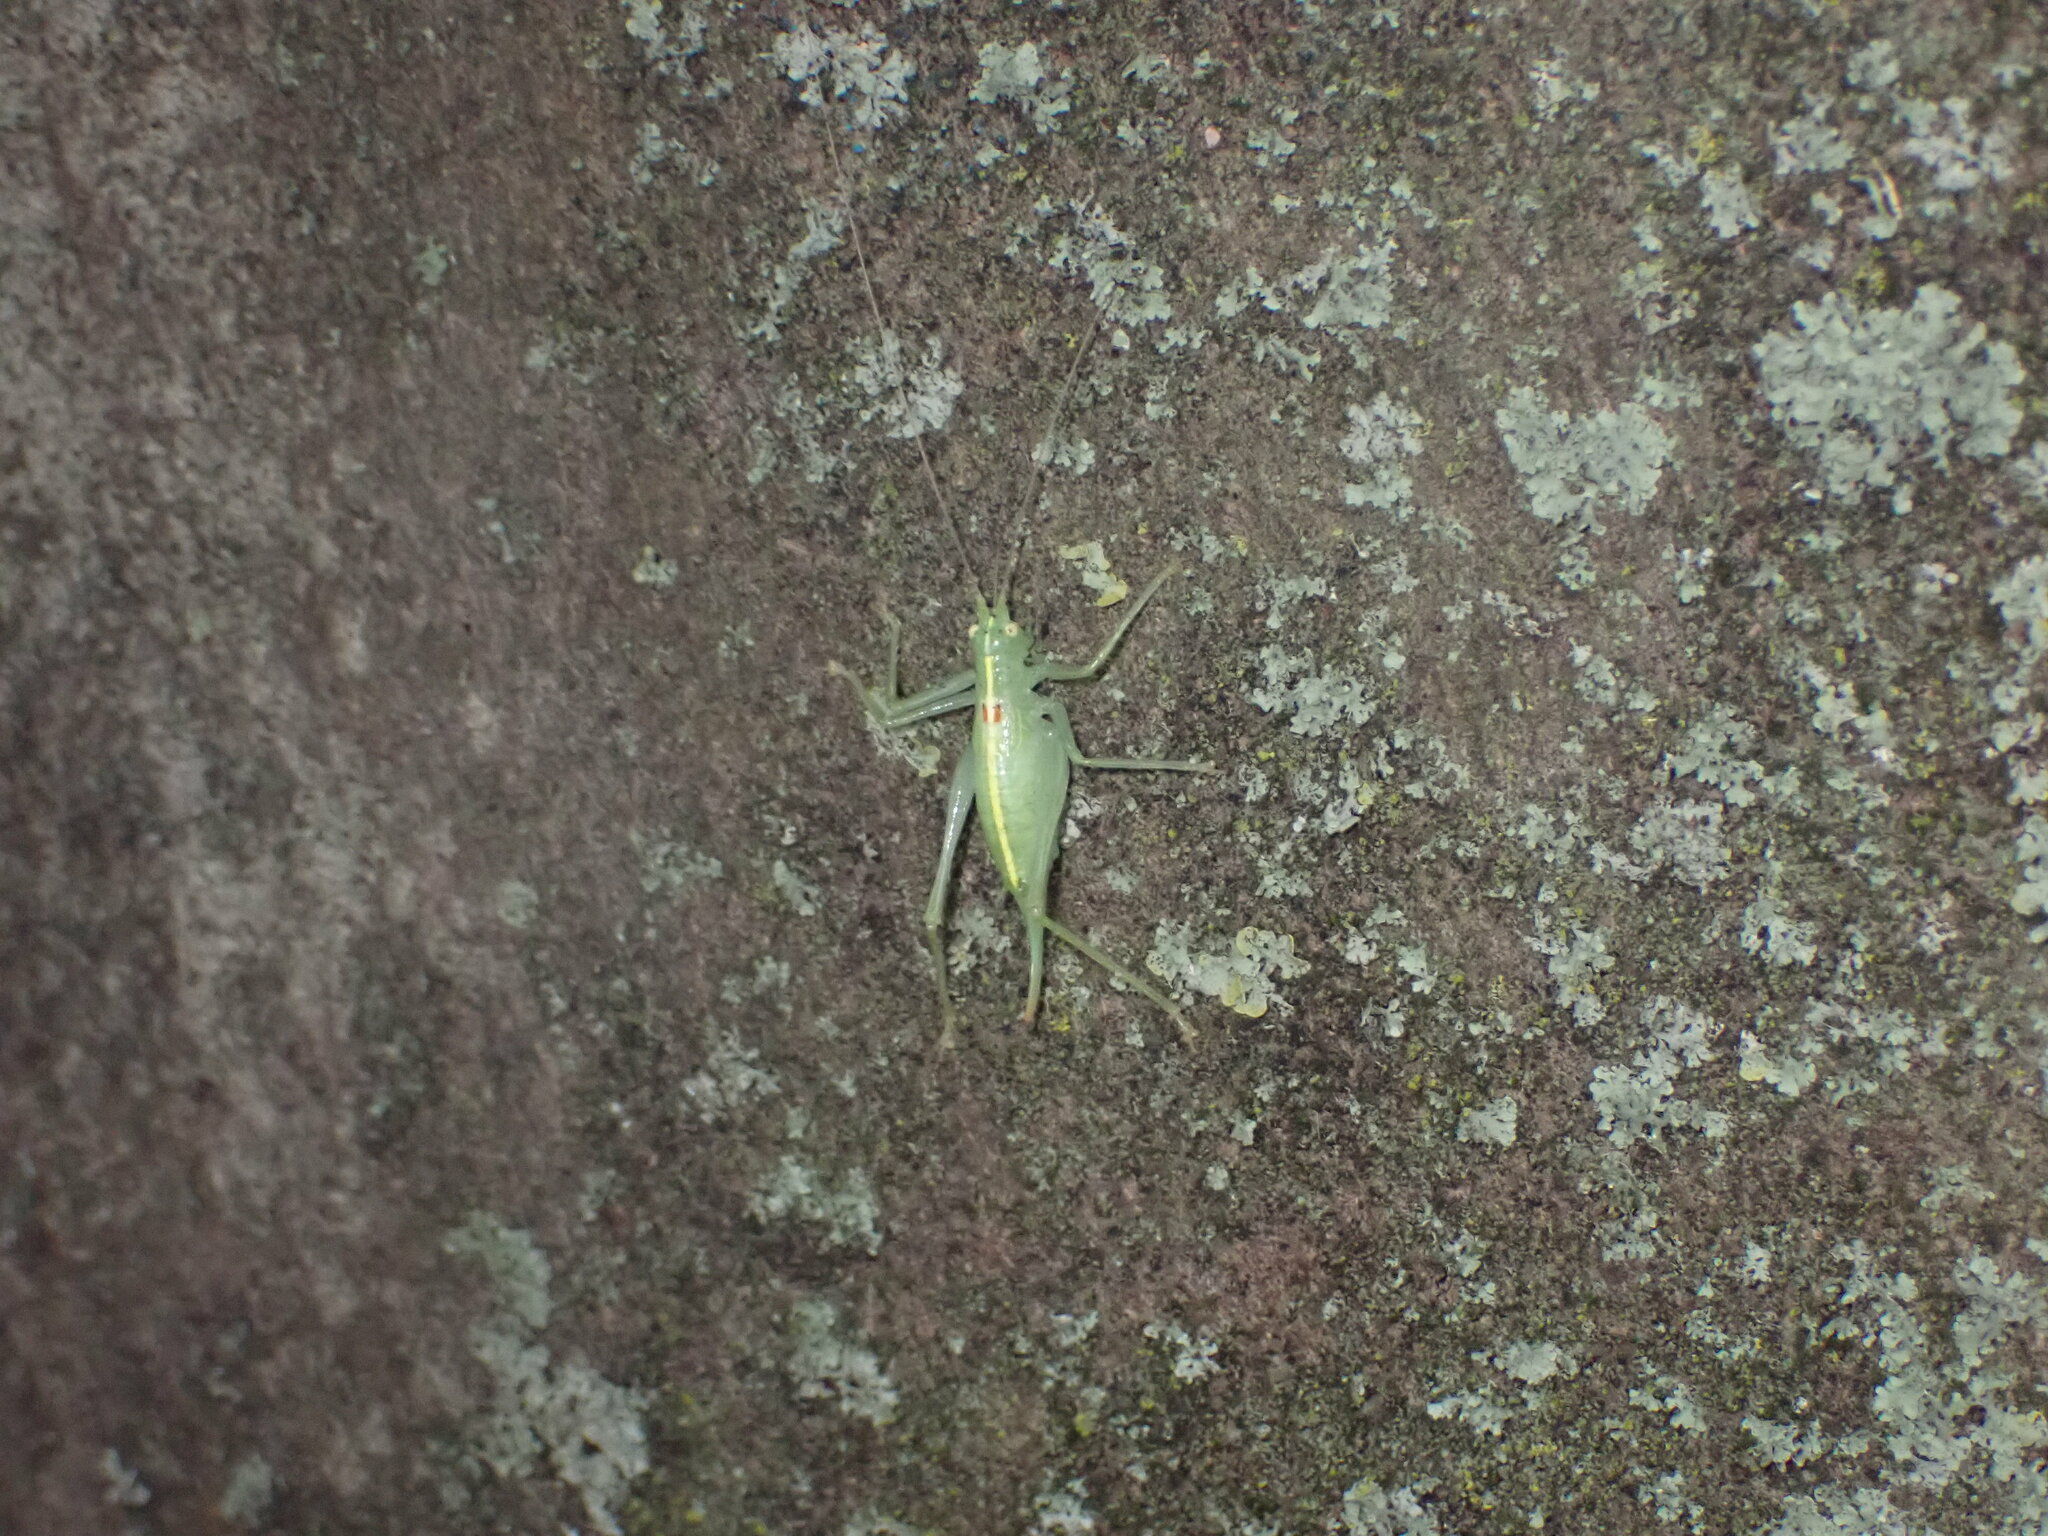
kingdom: Animalia
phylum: Arthropoda
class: Insecta
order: Orthoptera
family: Tettigoniidae
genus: Meconema
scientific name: Meconema meridionale
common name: Southern oak bush-cricket
